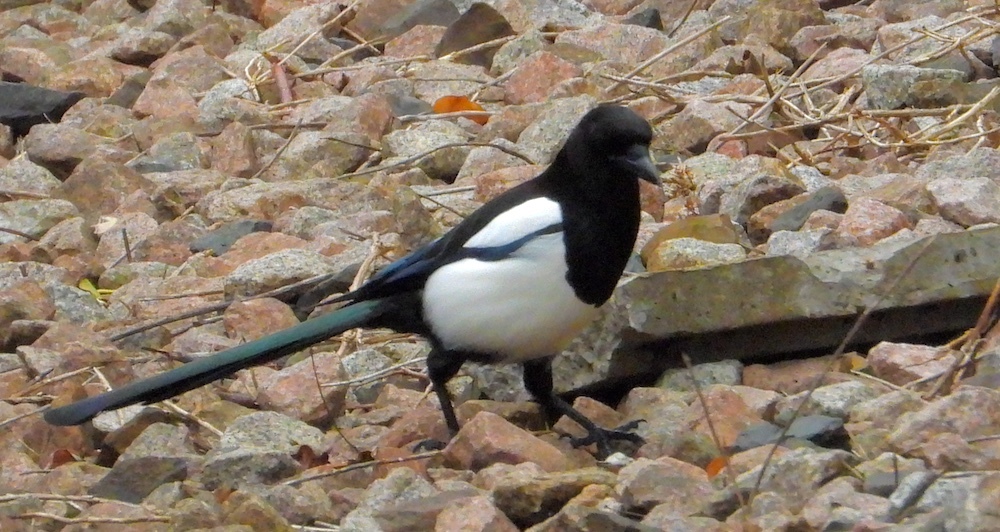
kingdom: Animalia
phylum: Chordata
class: Aves
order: Passeriformes
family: Corvidae
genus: Pica
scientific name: Pica pica
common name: Eurasian magpie
